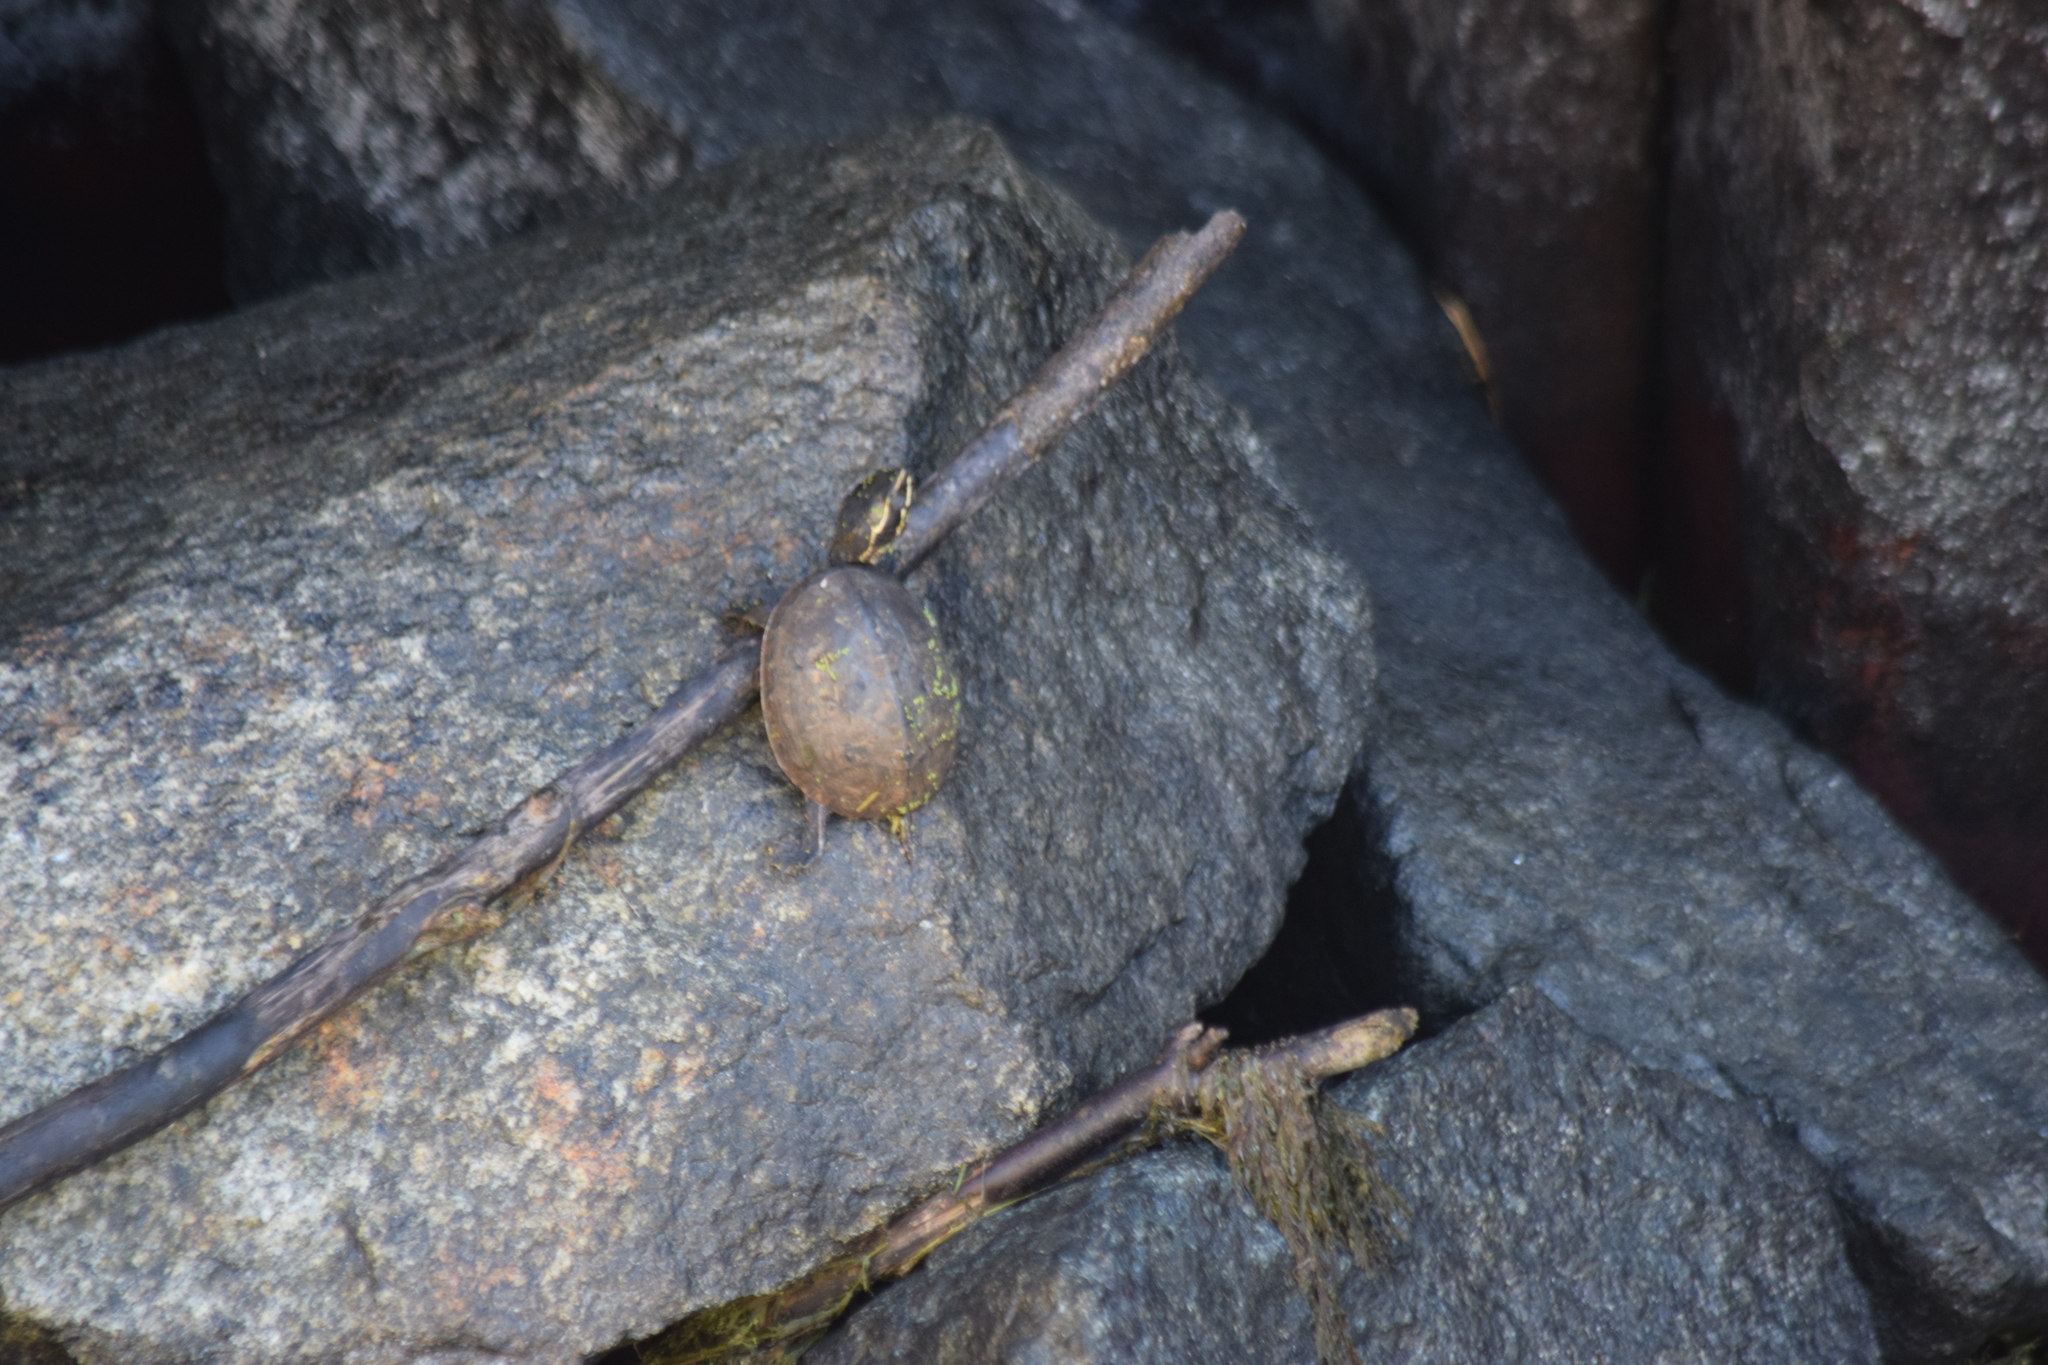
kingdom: Animalia
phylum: Chordata
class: Testudines
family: Kinosternidae
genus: Sternotherus
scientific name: Sternotherus odoratus
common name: Common musk turtle
